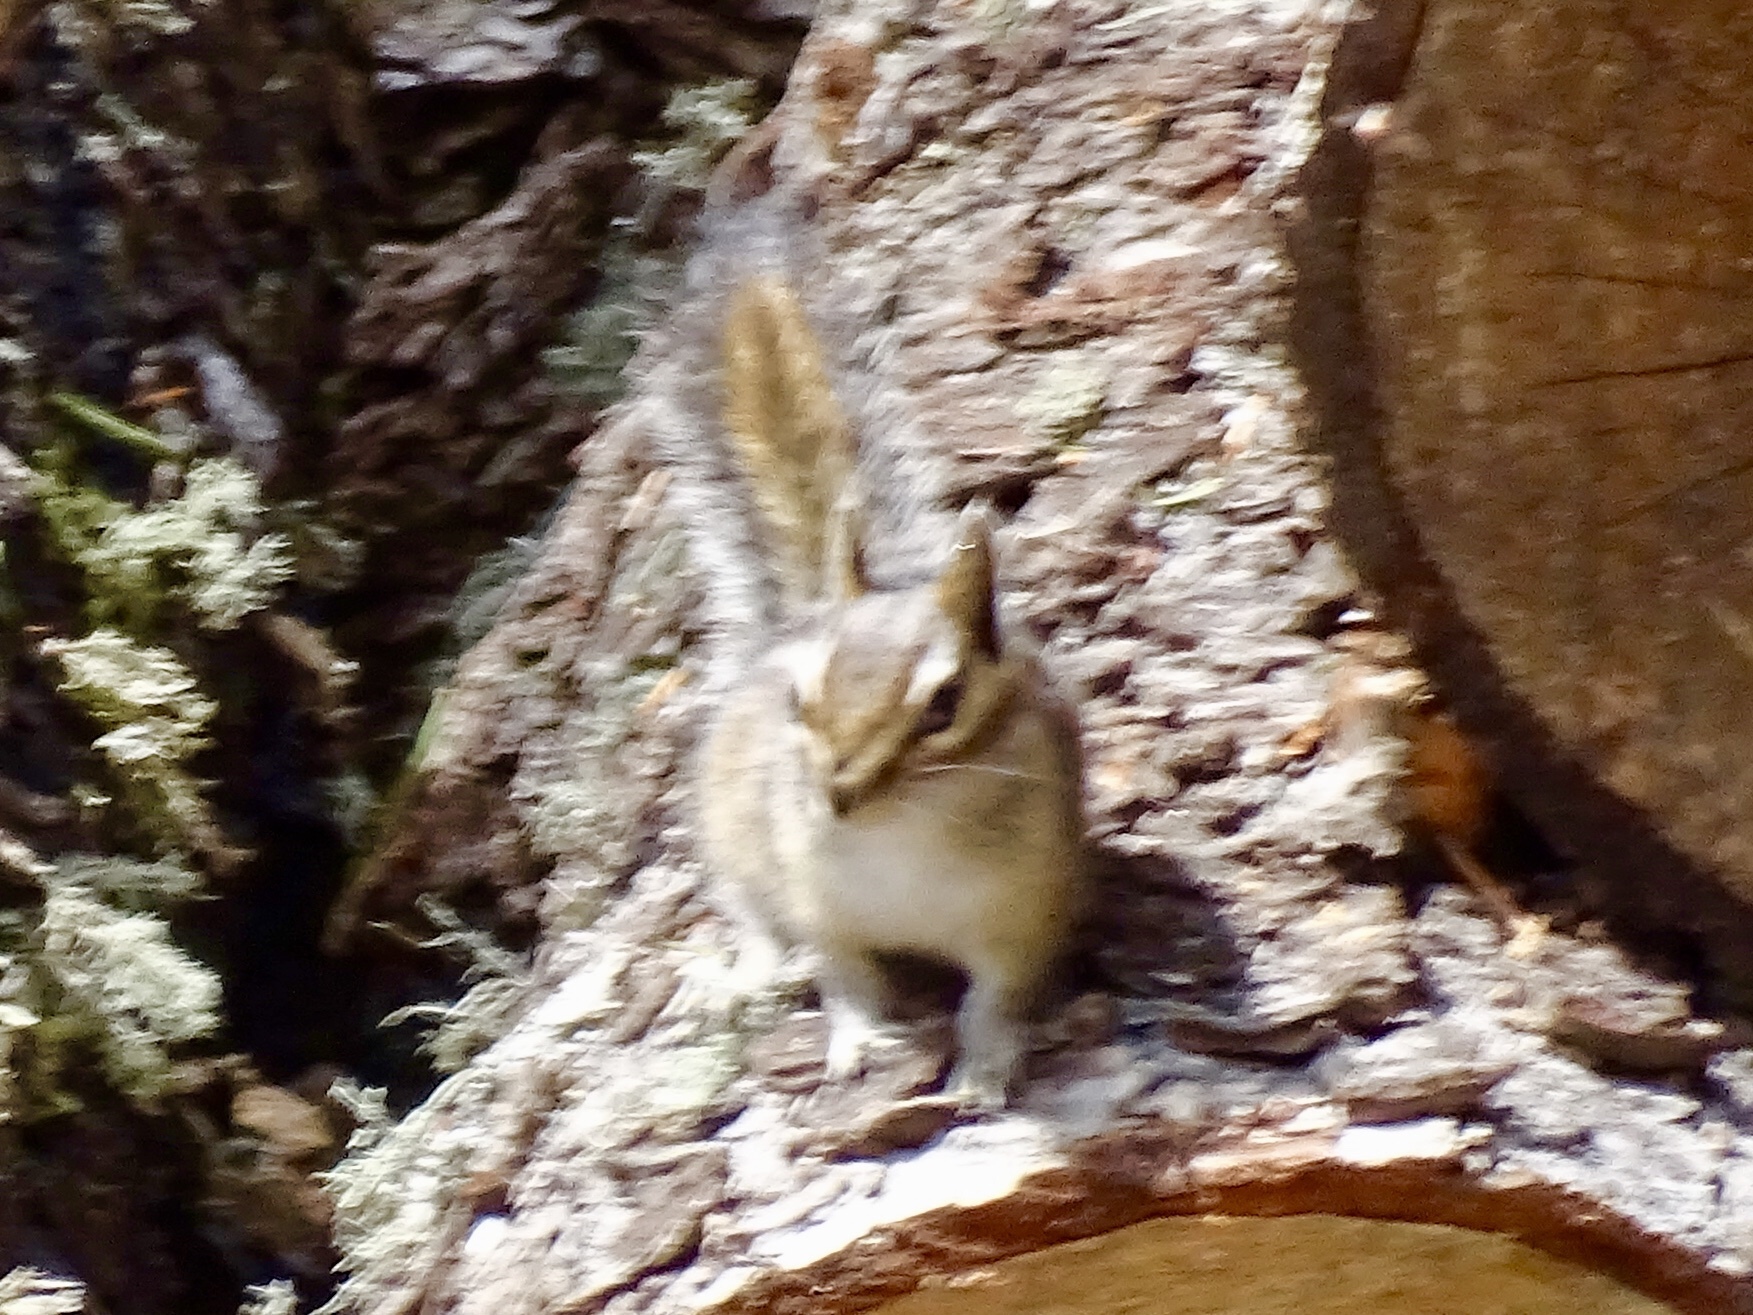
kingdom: Animalia
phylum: Chordata
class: Mammalia
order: Rodentia
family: Sciuridae
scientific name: Sciuridae
